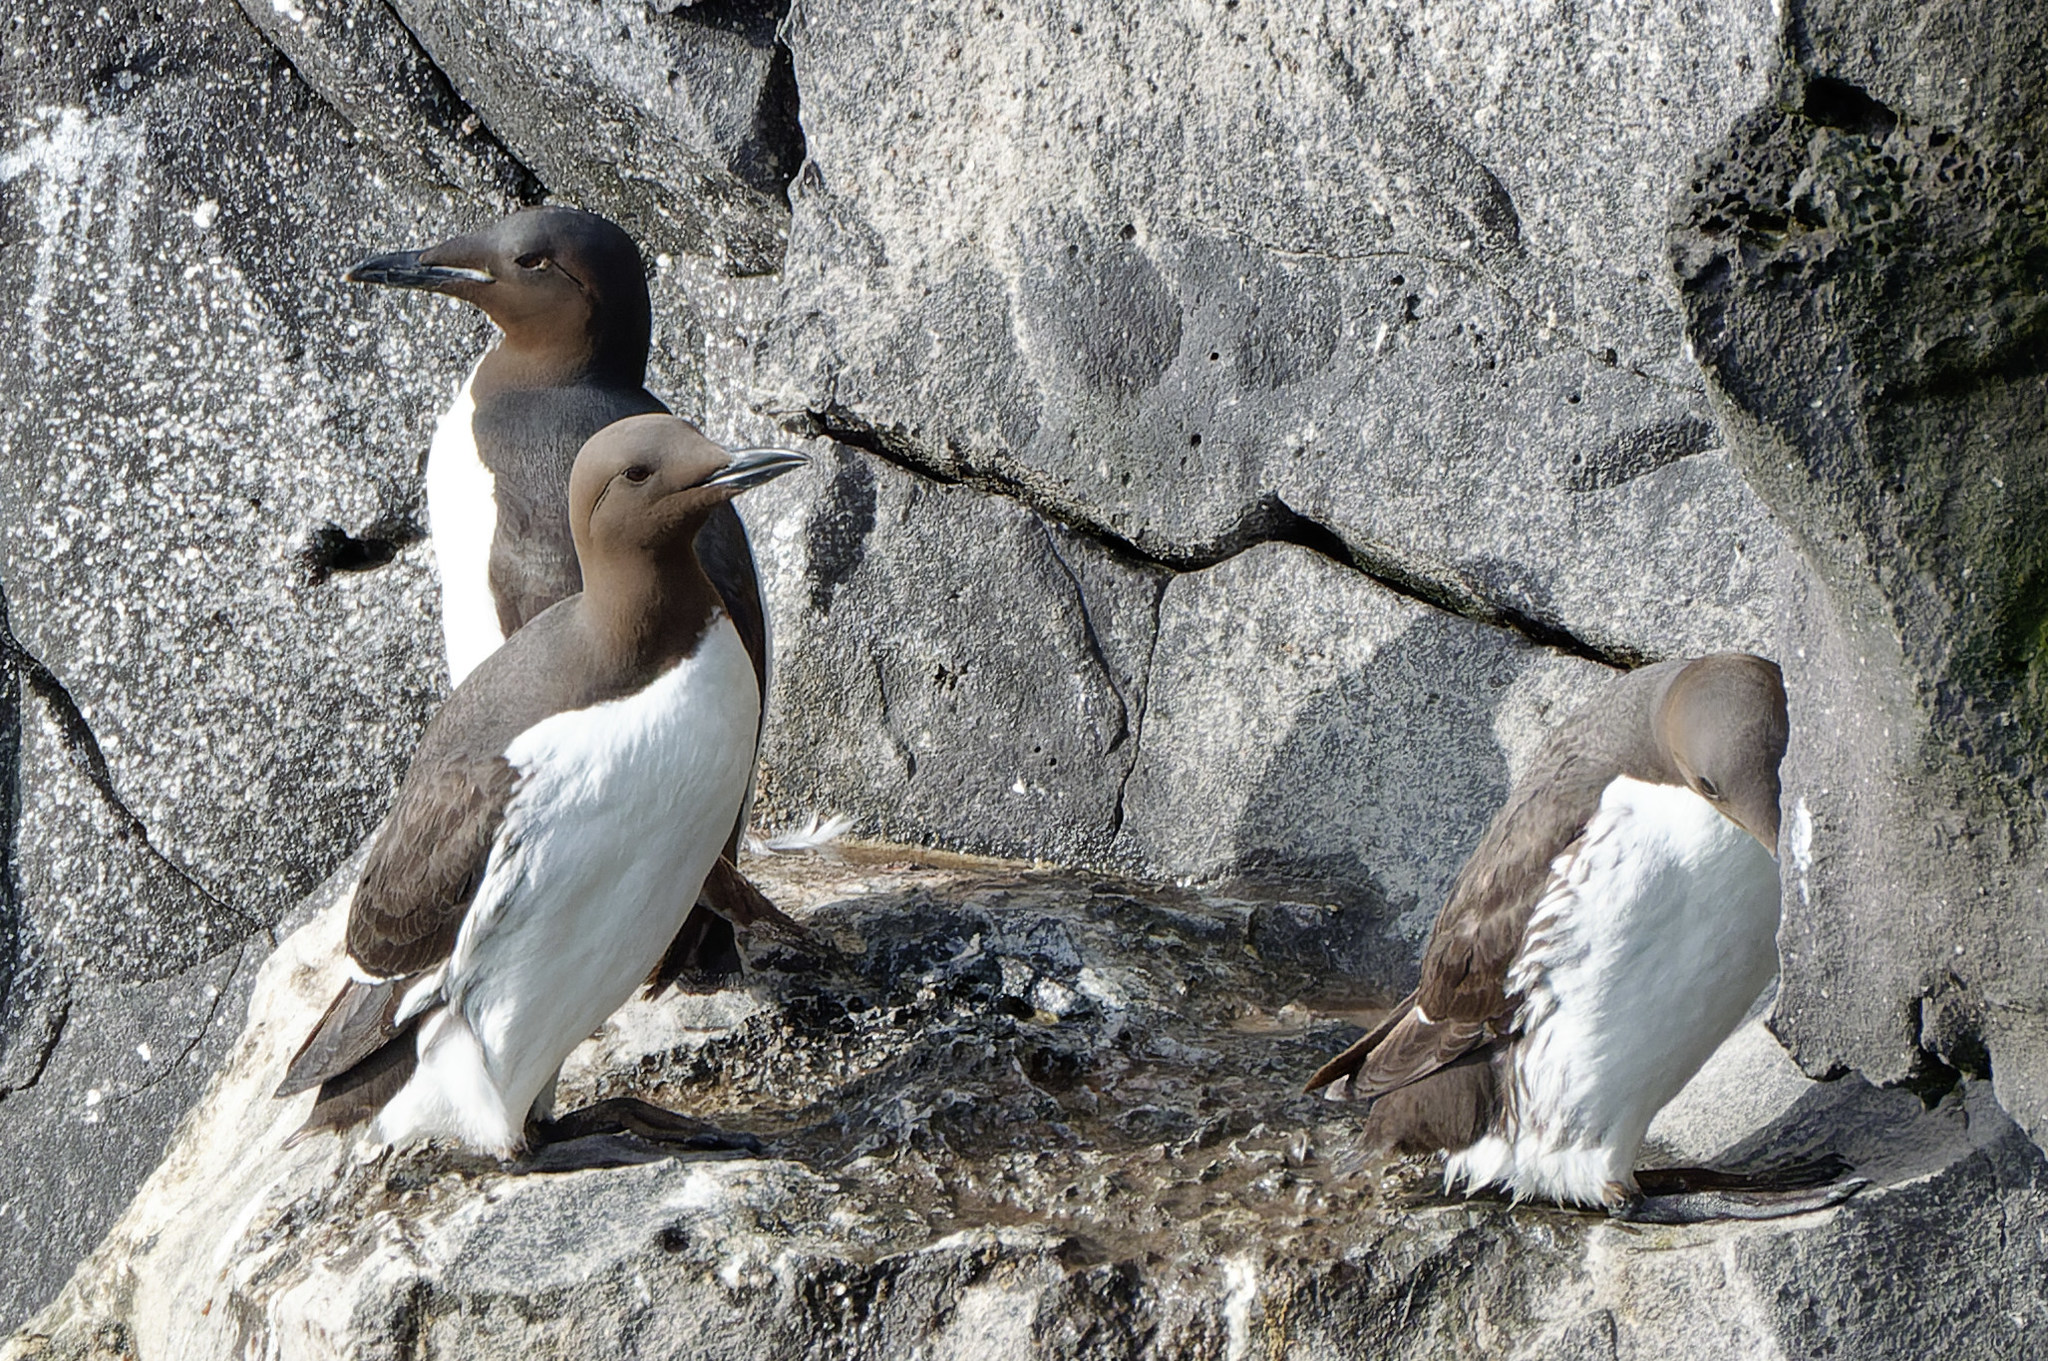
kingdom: Animalia
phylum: Chordata
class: Aves
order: Charadriiformes
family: Alcidae
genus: Uria
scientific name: Uria lomvia
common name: Thick-billed murre
